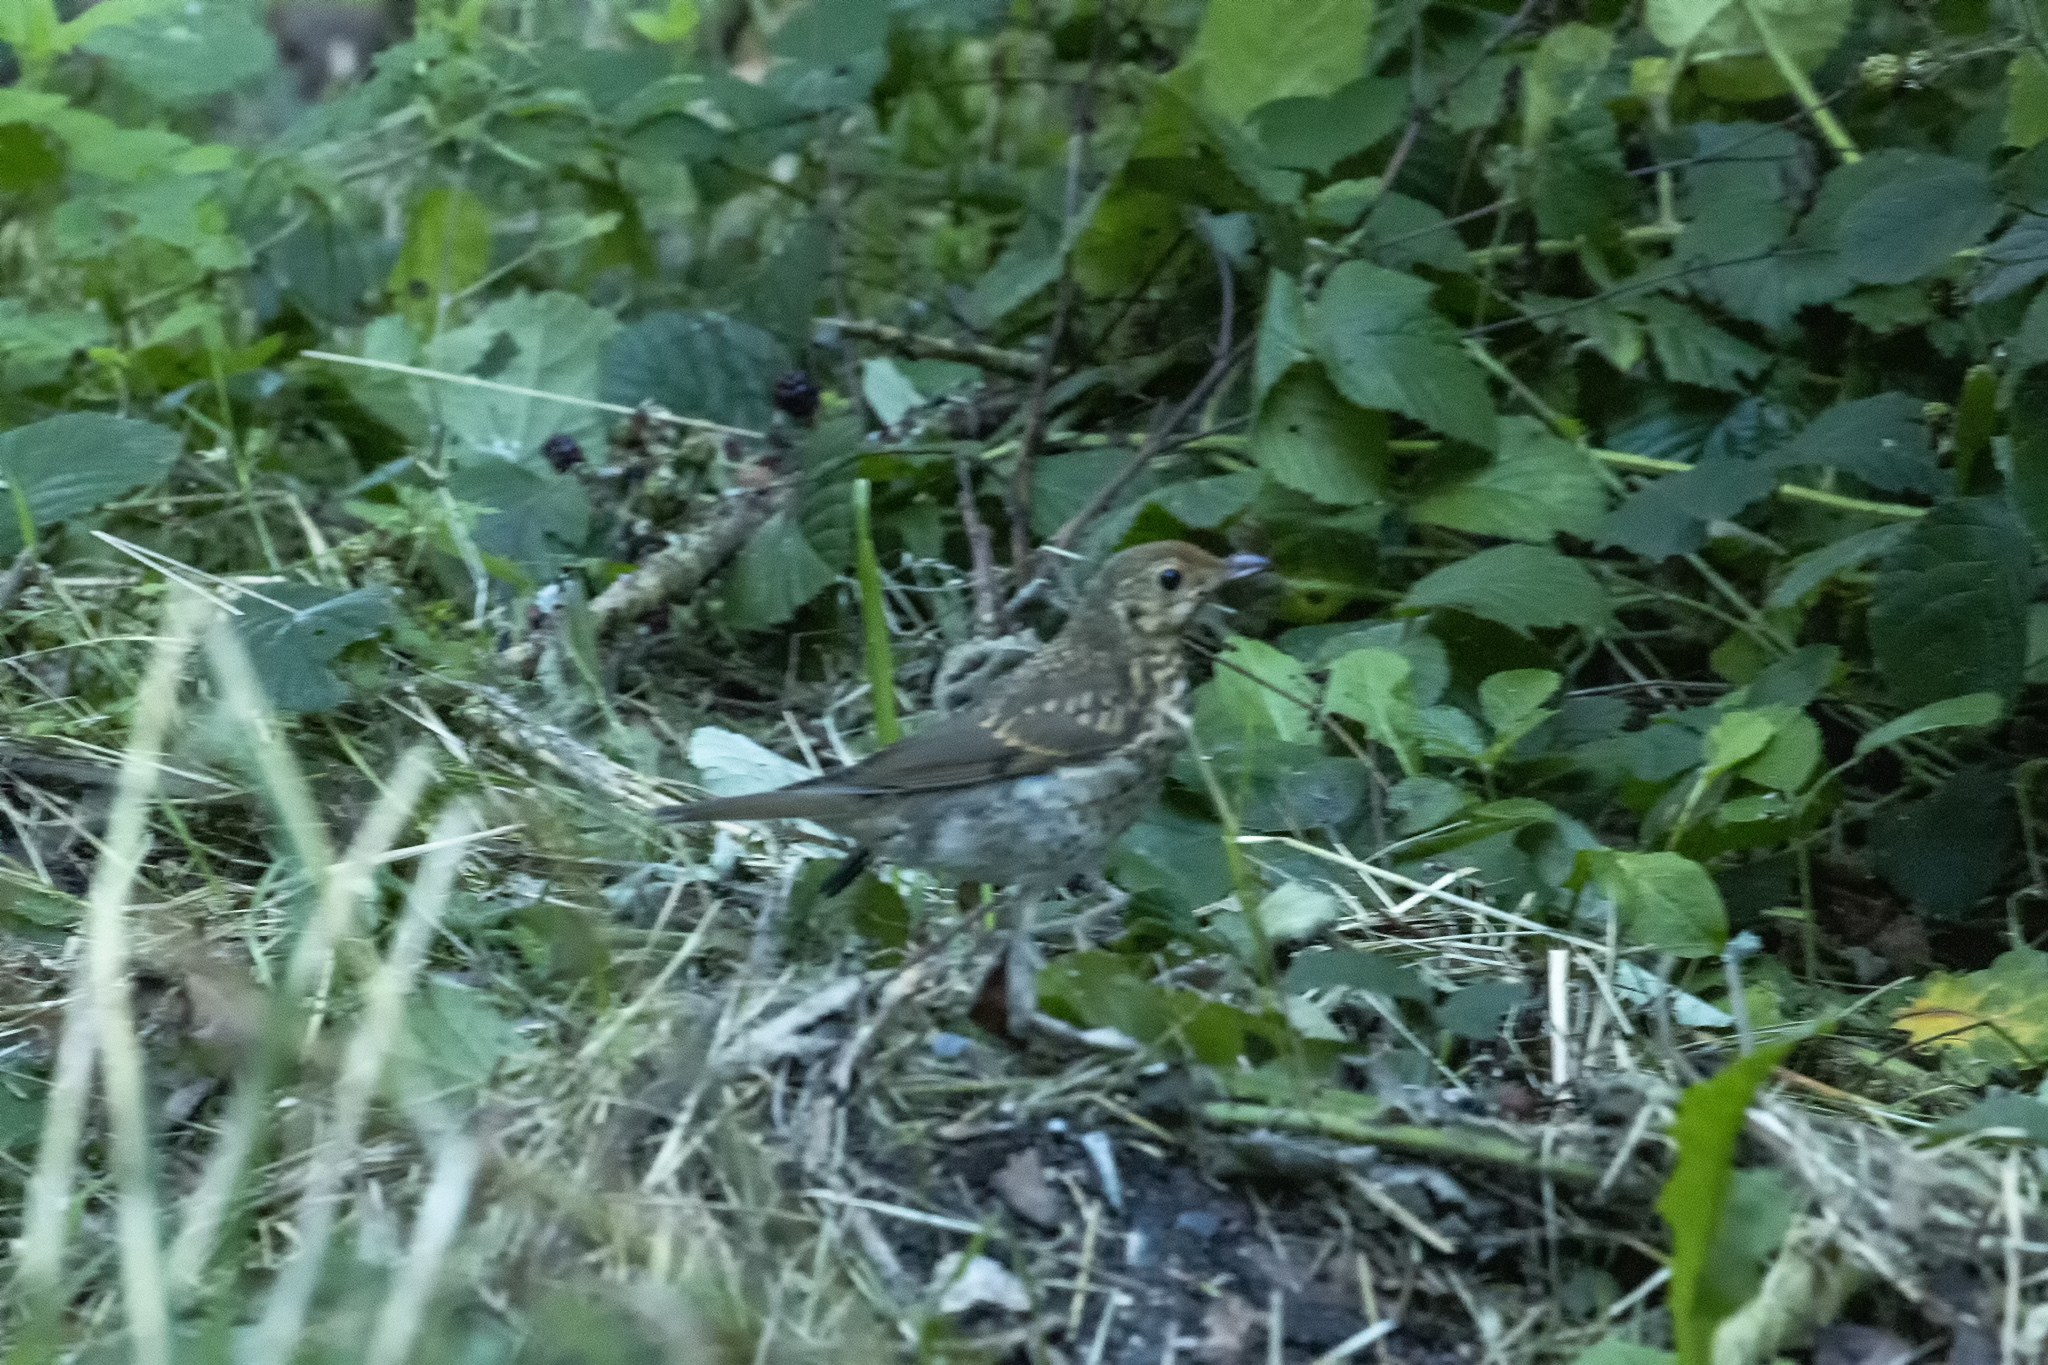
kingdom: Animalia
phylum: Chordata
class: Aves
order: Passeriformes
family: Turdidae
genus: Turdus
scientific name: Turdus philomelos
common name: Song thrush
